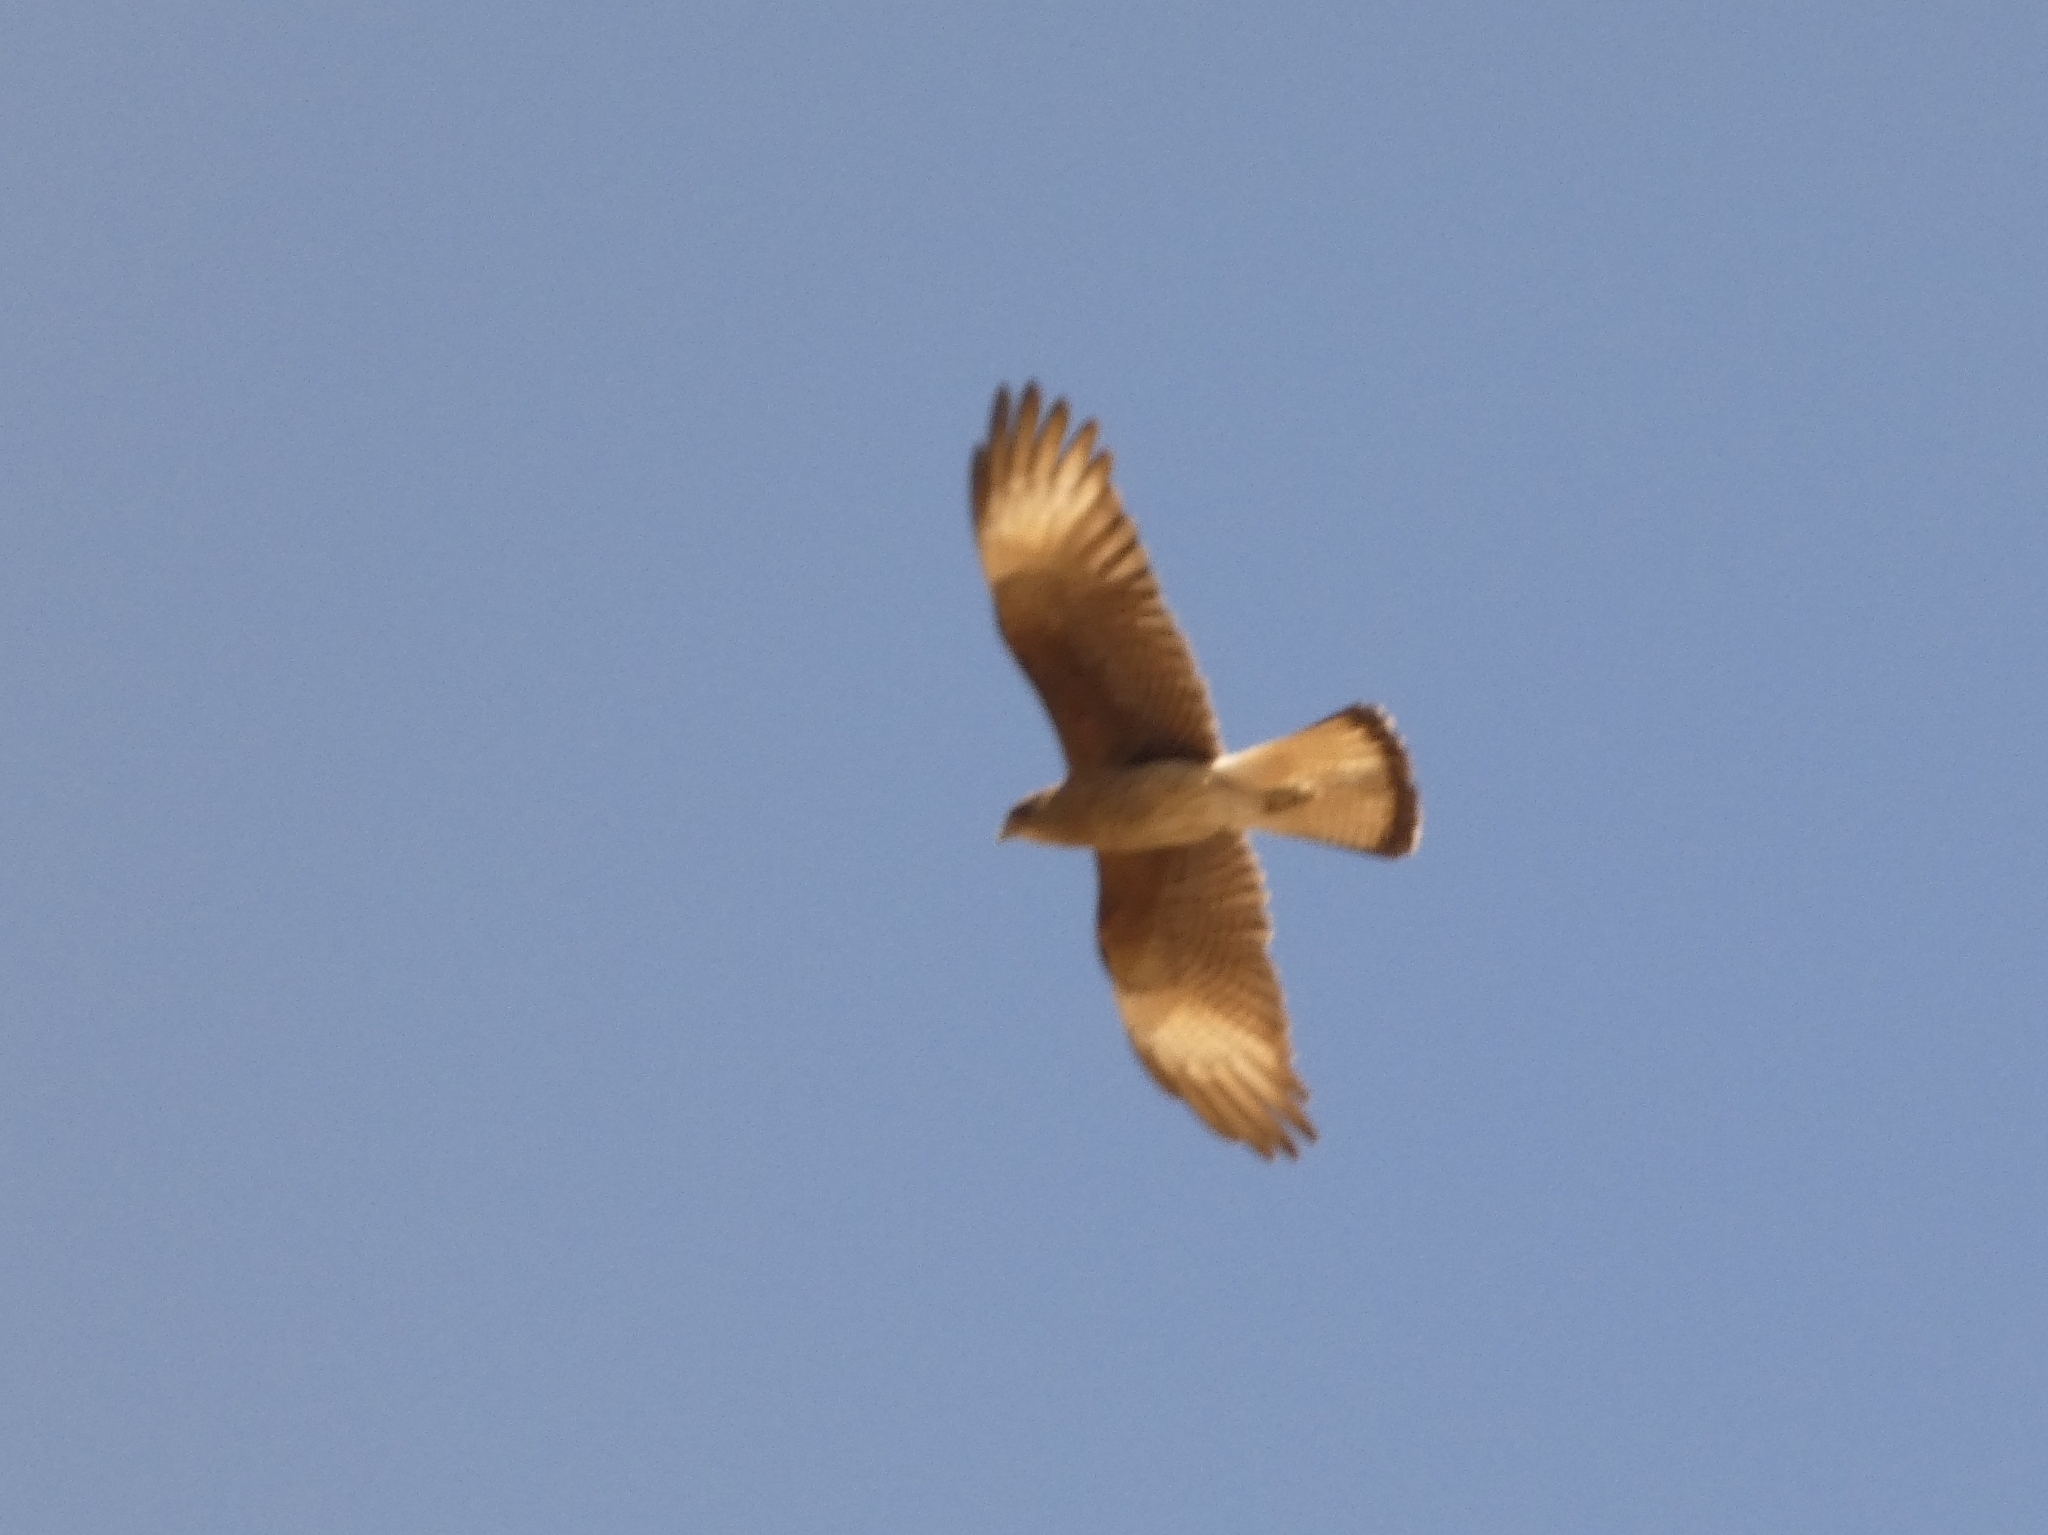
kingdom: Animalia
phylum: Chordata
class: Aves
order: Falconiformes
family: Falconidae
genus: Daptrius
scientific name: Daptrius
